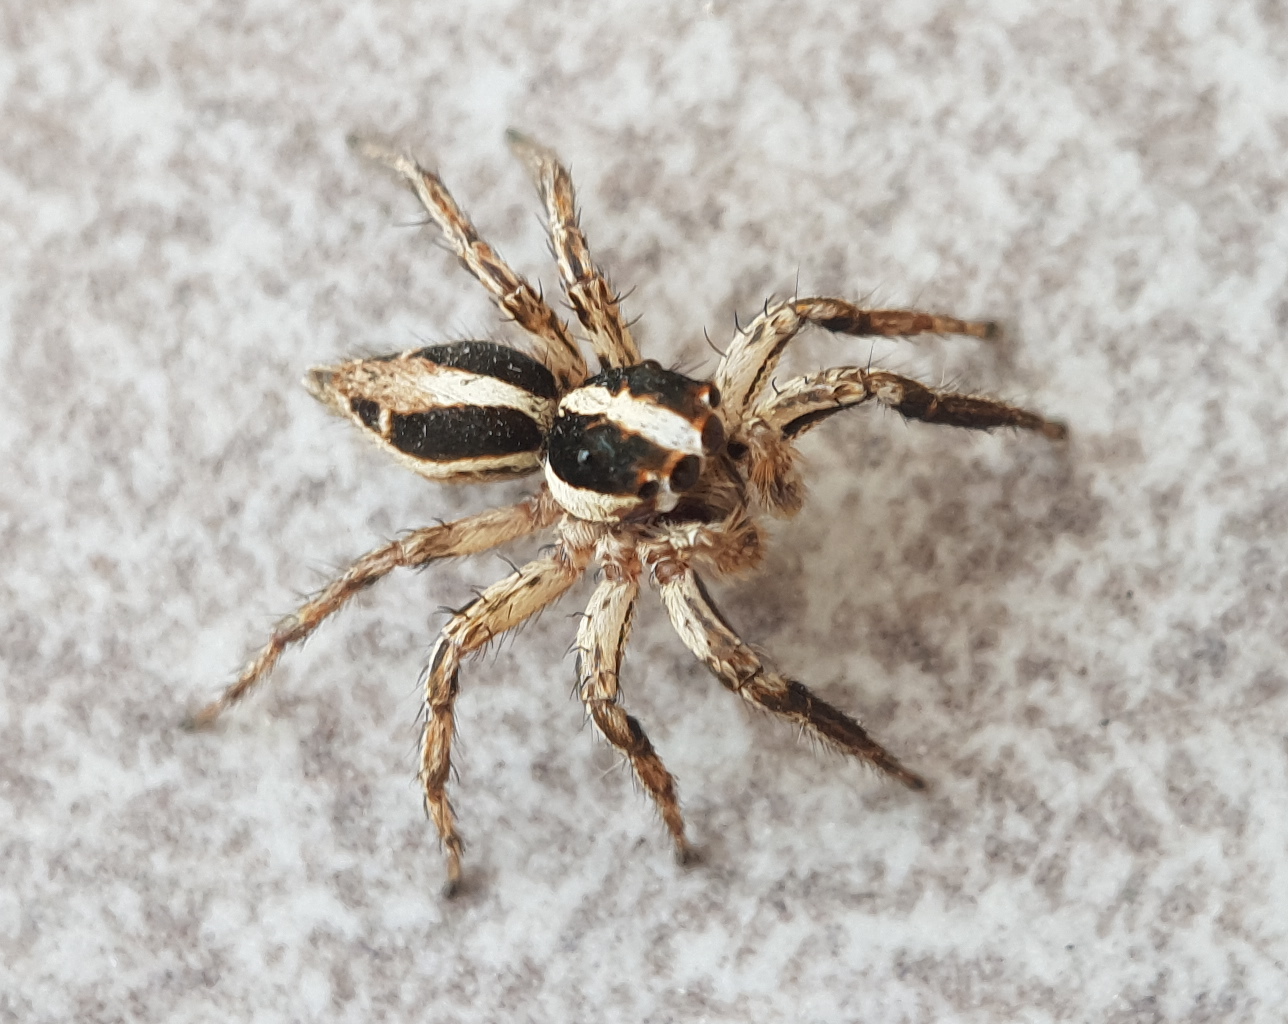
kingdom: Animalia
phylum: Arthropoda
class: Arachnida
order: Araneae
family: Salticidae
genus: Plexippus
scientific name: Plexippus paykulli
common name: Pantropical jumper
